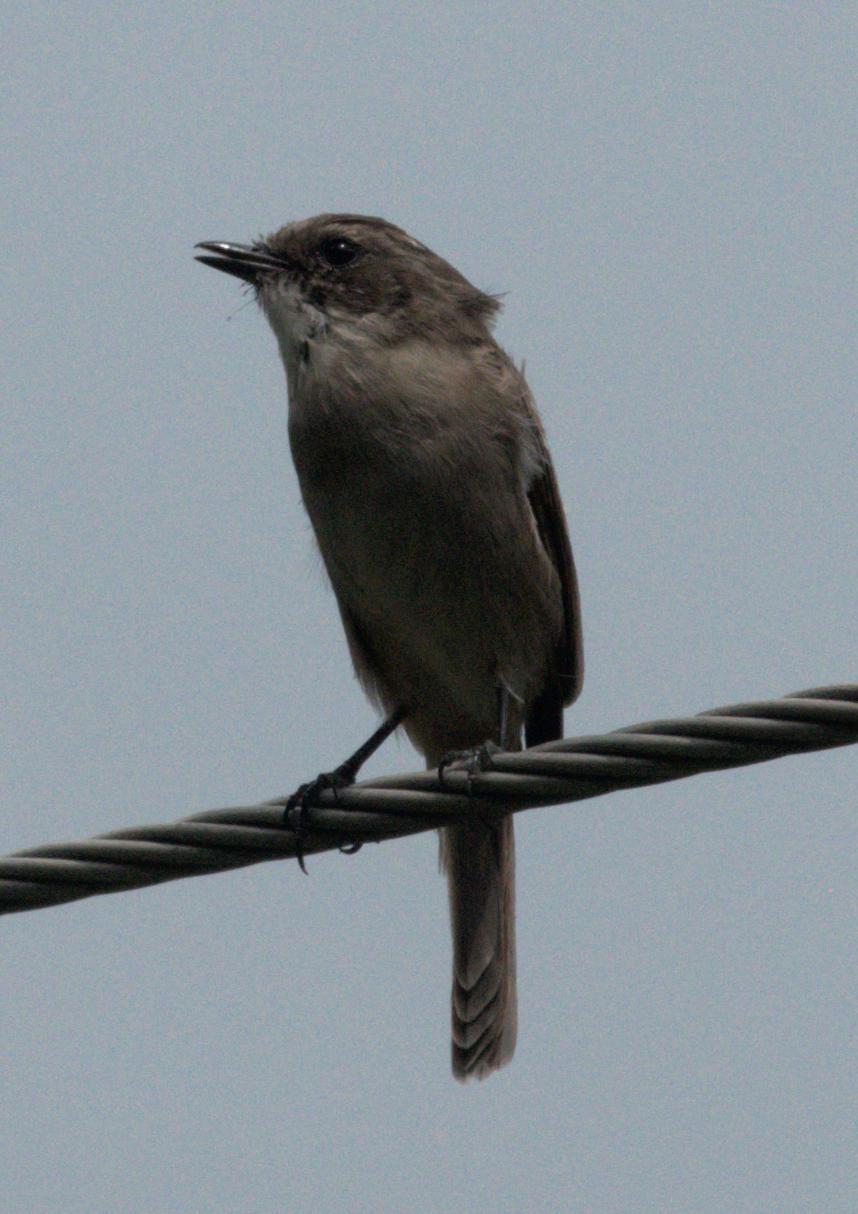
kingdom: Animalia
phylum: Chordata
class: Aves
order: Passeriformes
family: Muscicapidae
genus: Saxicola
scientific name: Saxicola ferreus
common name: Grey bush chat
